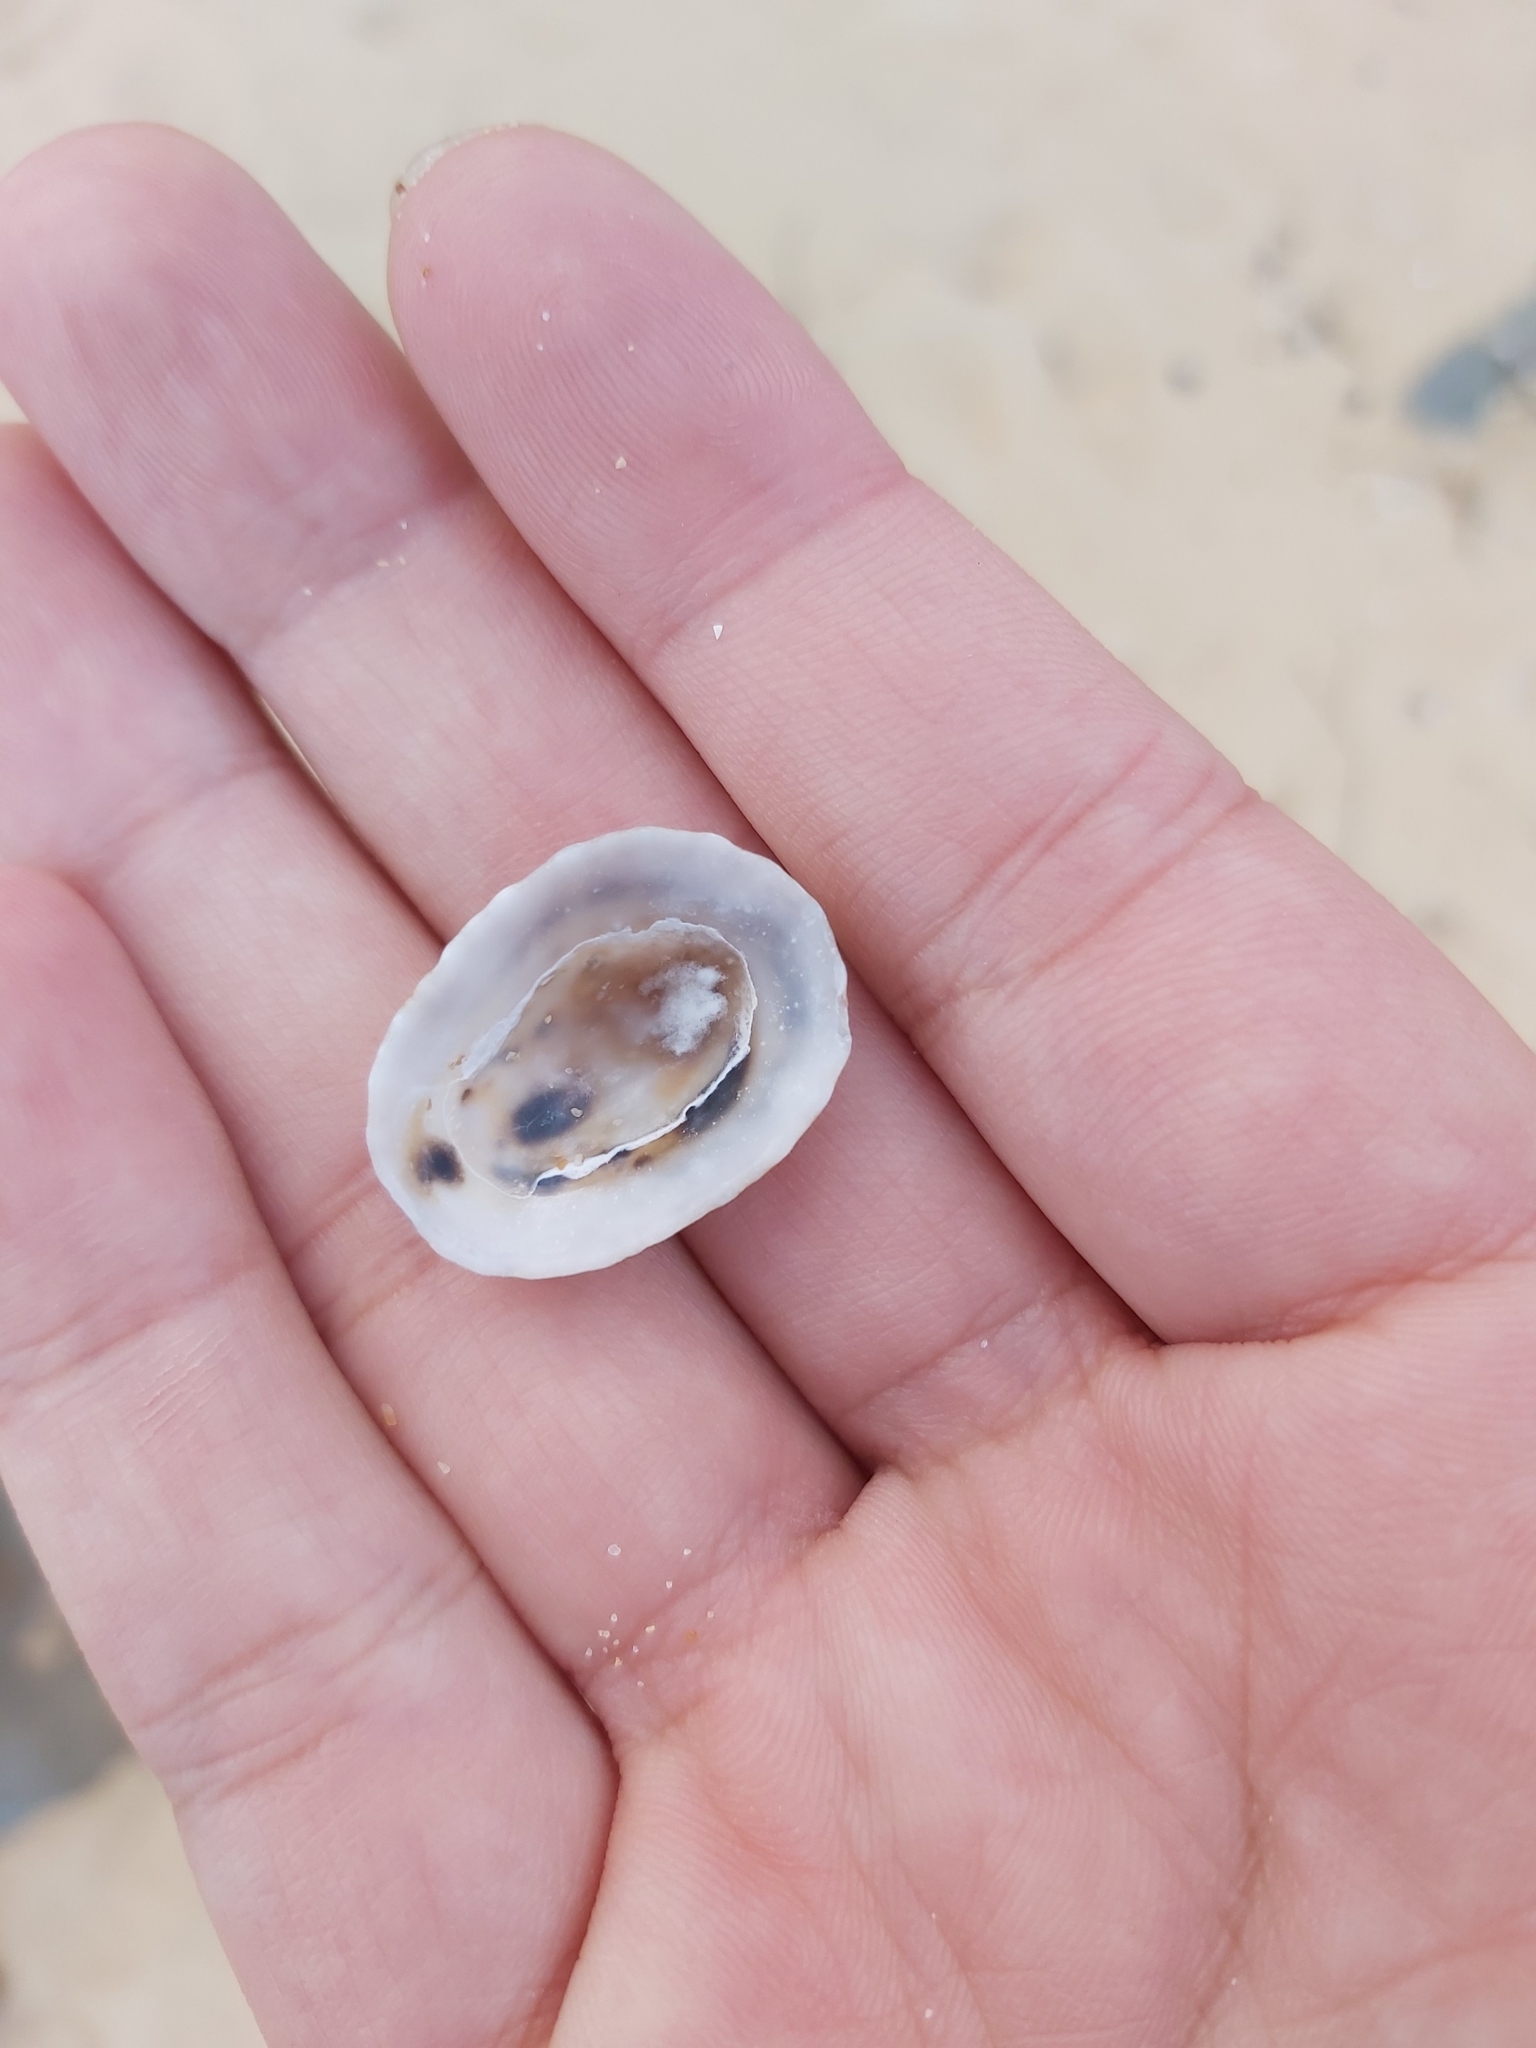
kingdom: Animalia
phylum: Mollusca
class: Gastropoda
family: Patellidae
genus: Scutellastra
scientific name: Scutellastra peronii
